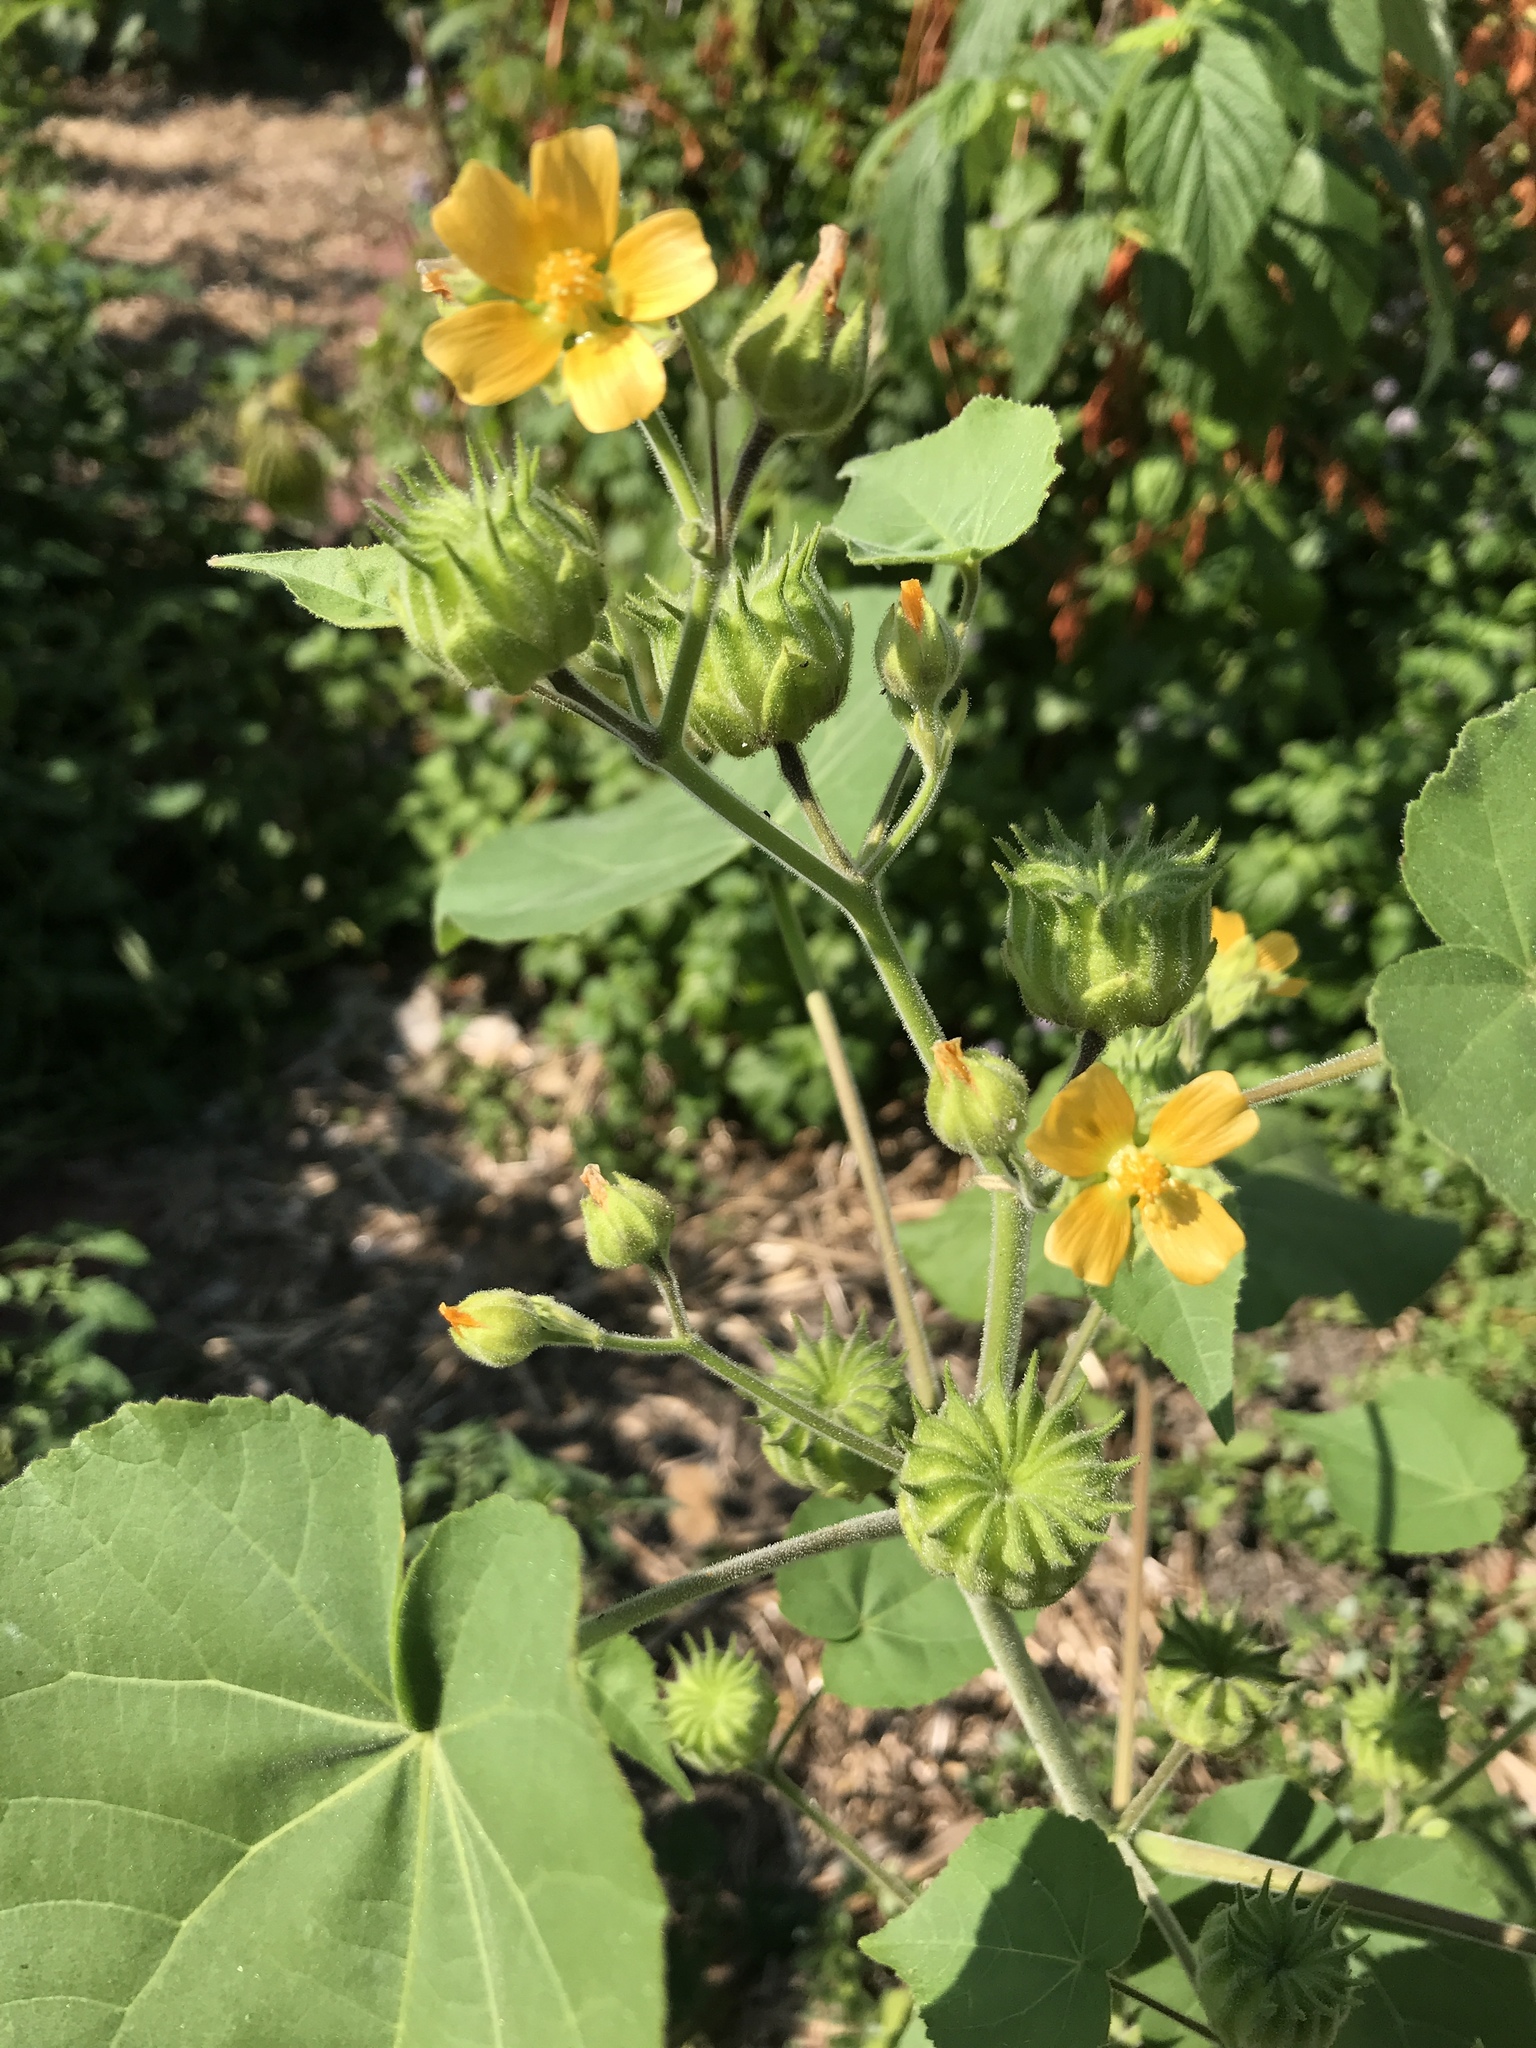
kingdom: Plantae
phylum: Tracheophyta
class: Magnoliopsida
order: Malvales
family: Malvaceae
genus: Abutilon
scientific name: Abutilon theophrasti
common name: Velvetleaf
